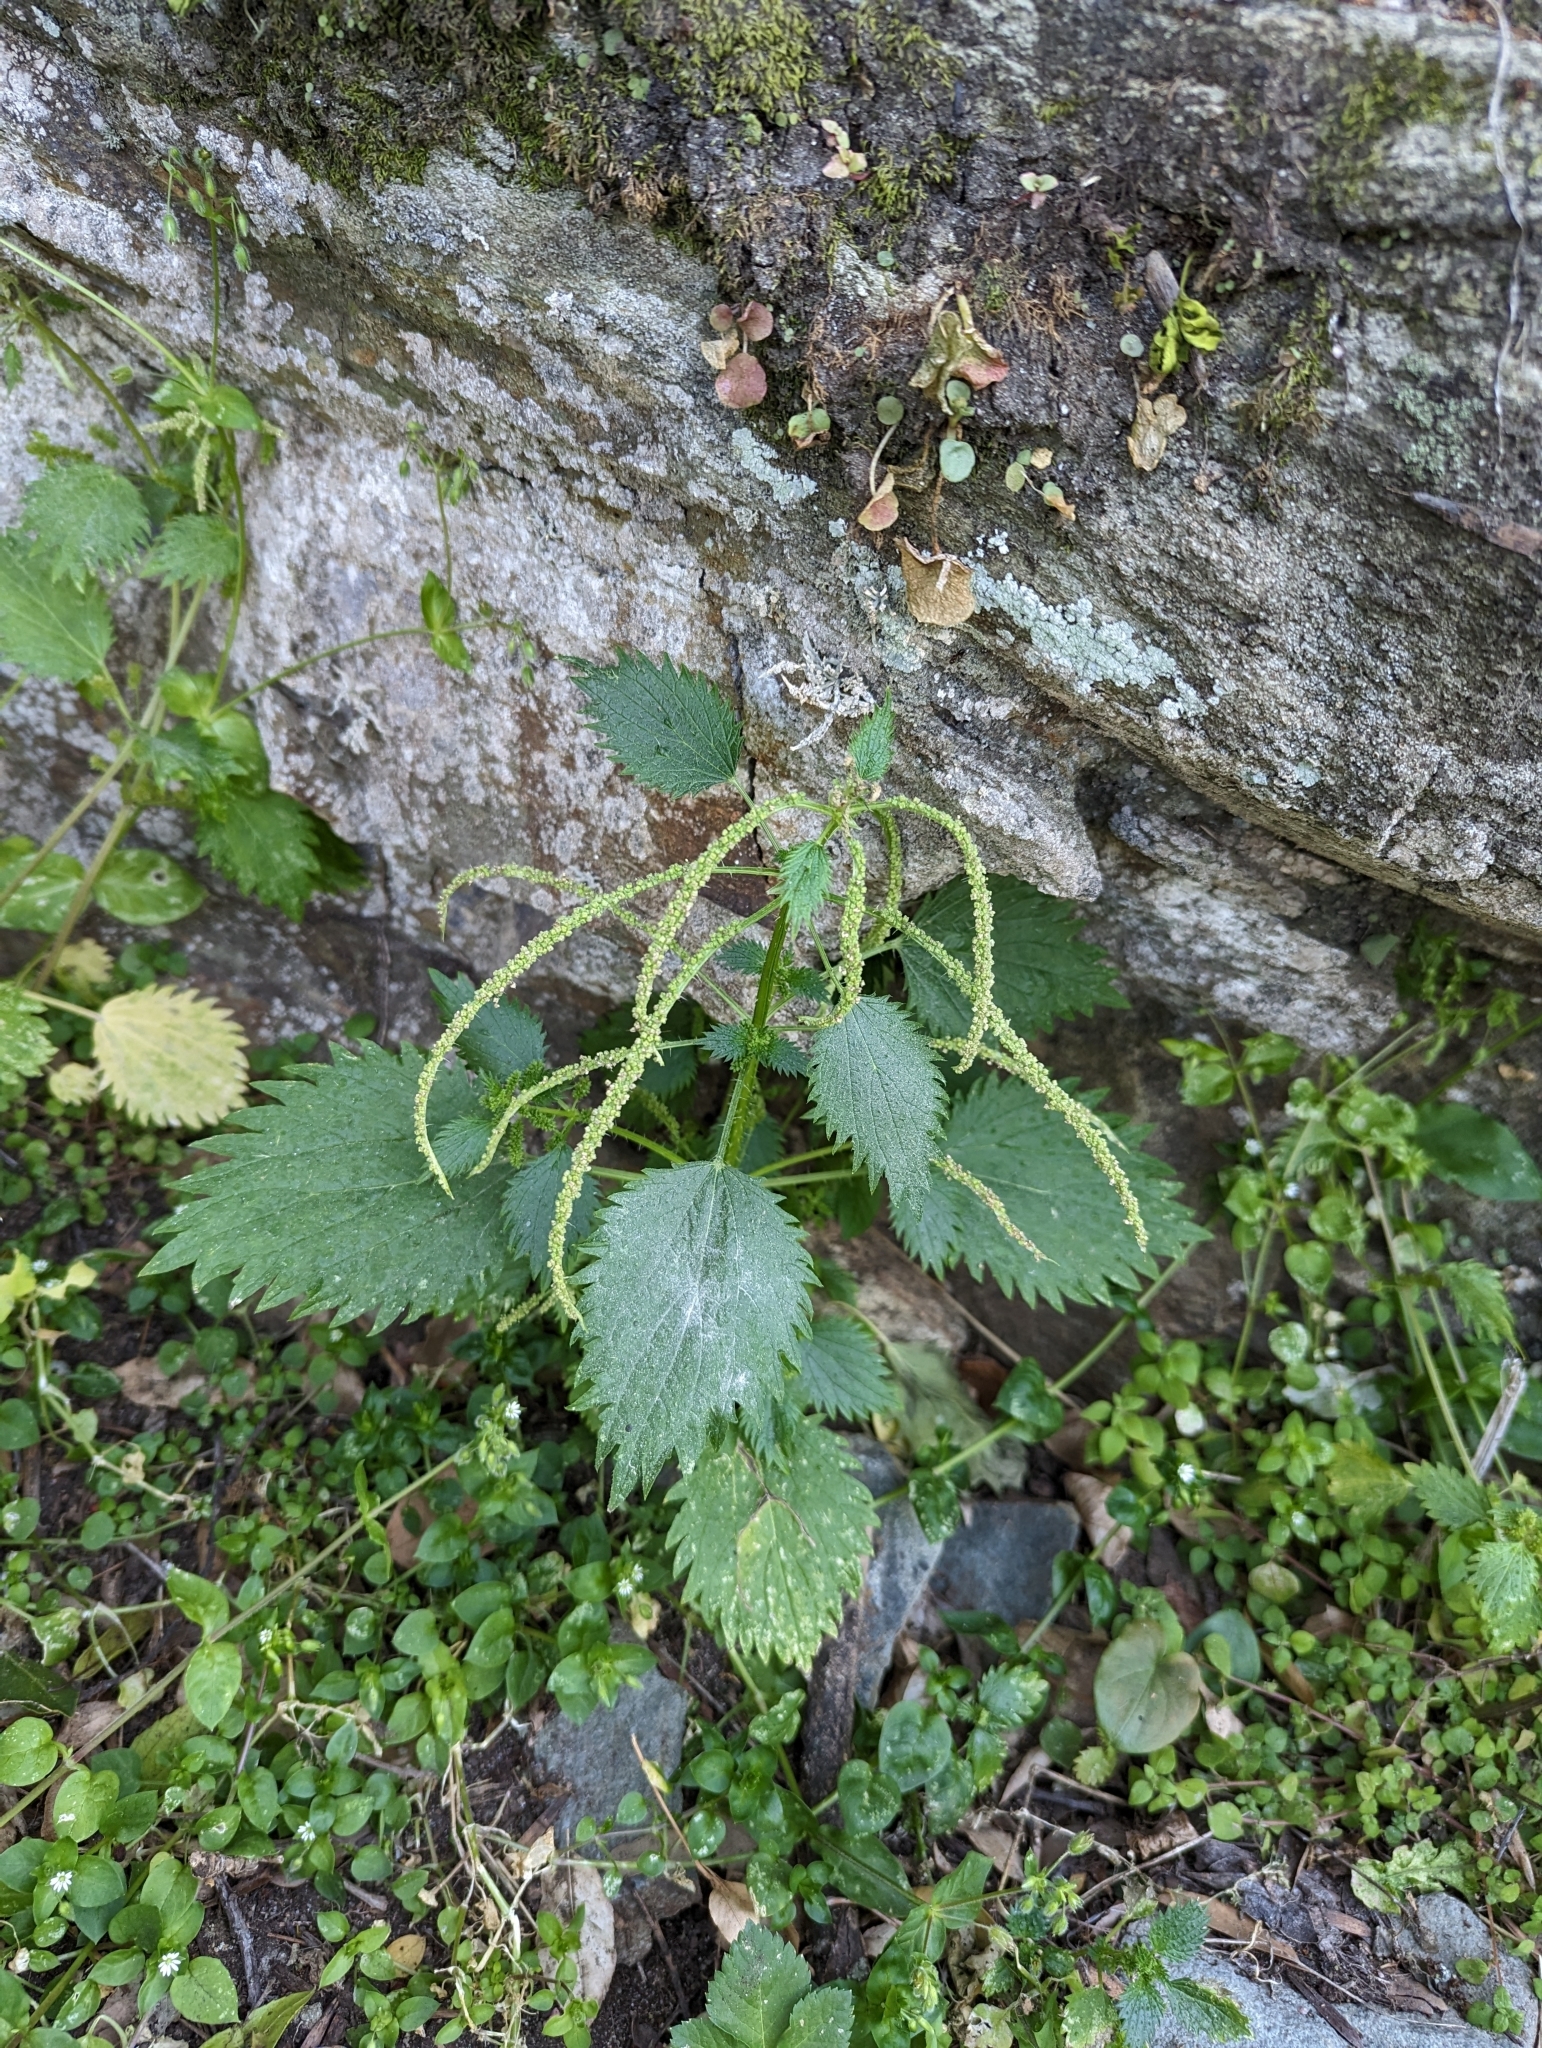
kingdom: Plantae
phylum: Tracheophyta
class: Magnoliopsida
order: Rosales
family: Urticaceae
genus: Urtica
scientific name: Urtica membranacea
